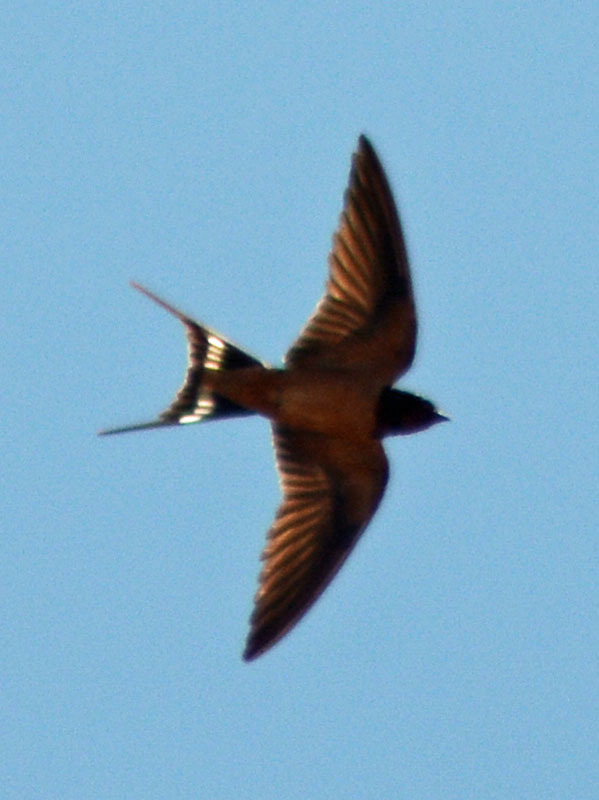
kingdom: Animalia
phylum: Chordata
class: Aves
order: Passeriformes
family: Hirundinidae
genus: Hirundo
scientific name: Hirundo rustica
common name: Barn swallow
